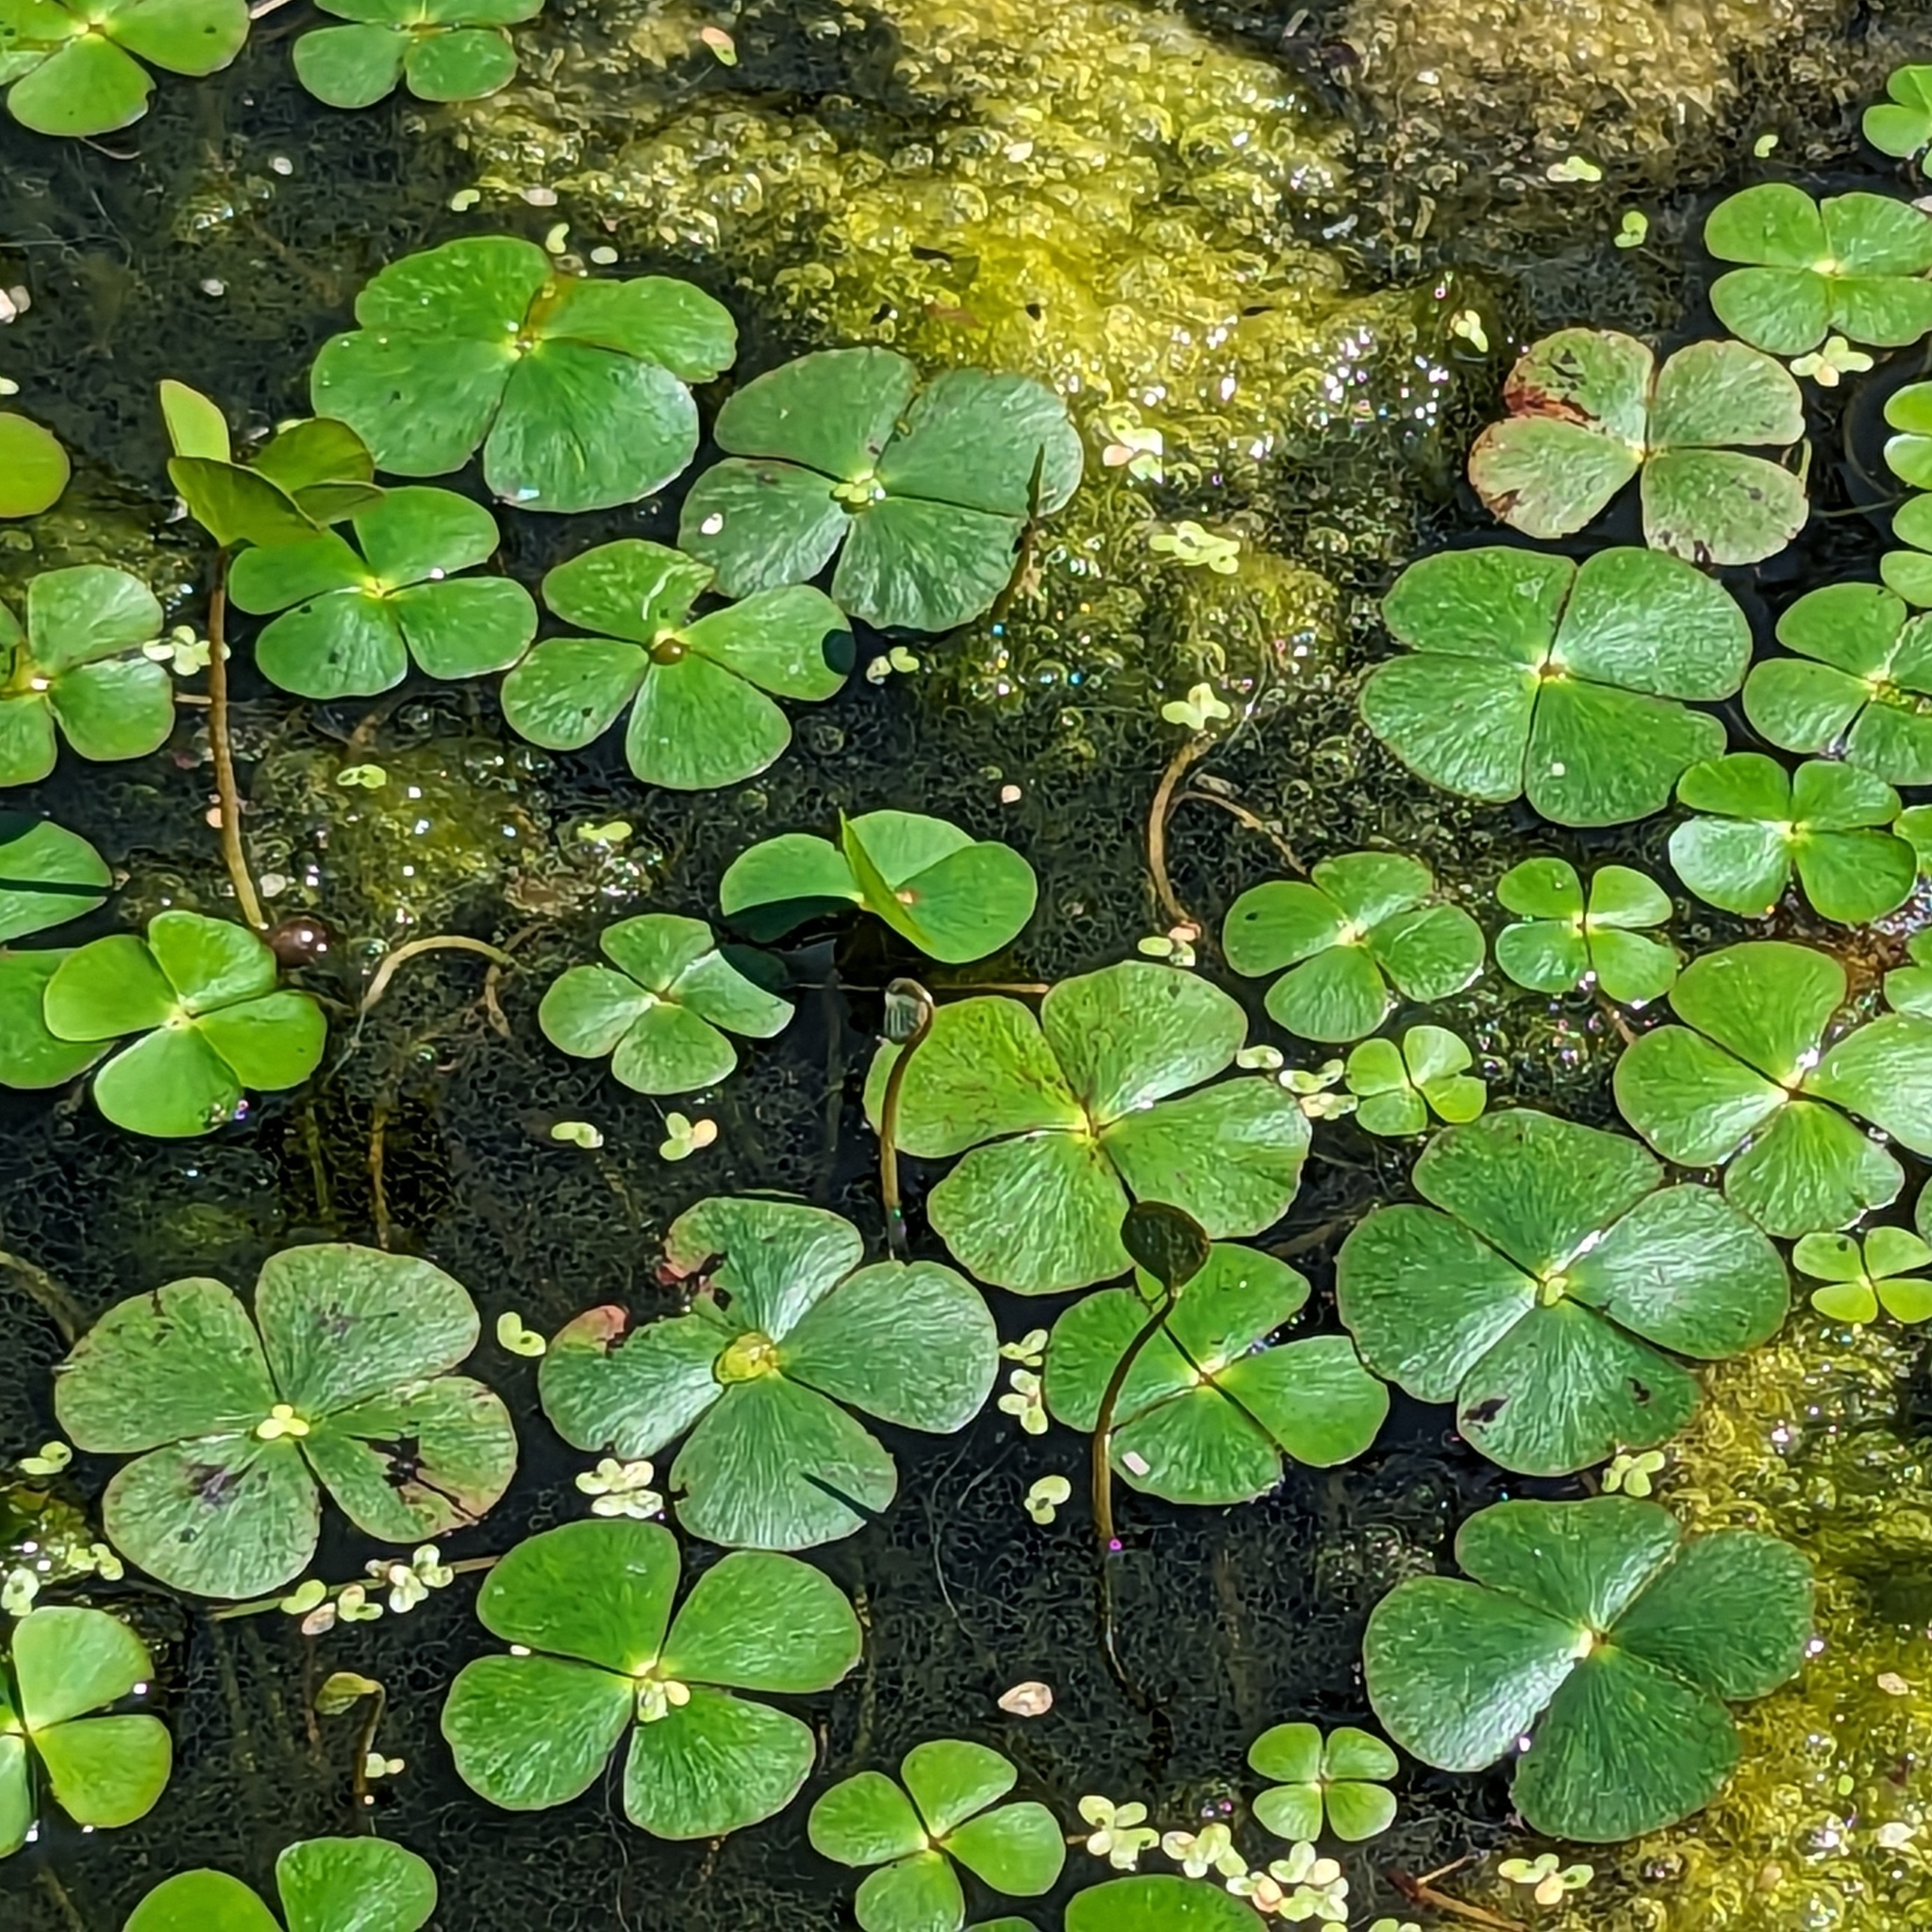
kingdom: Plantae
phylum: Tracheophyta
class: Polypodiopsida
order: Salviniales
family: Marsileaceae
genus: Marsilea
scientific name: Marsilea quadrifolia
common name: Water shamrock
